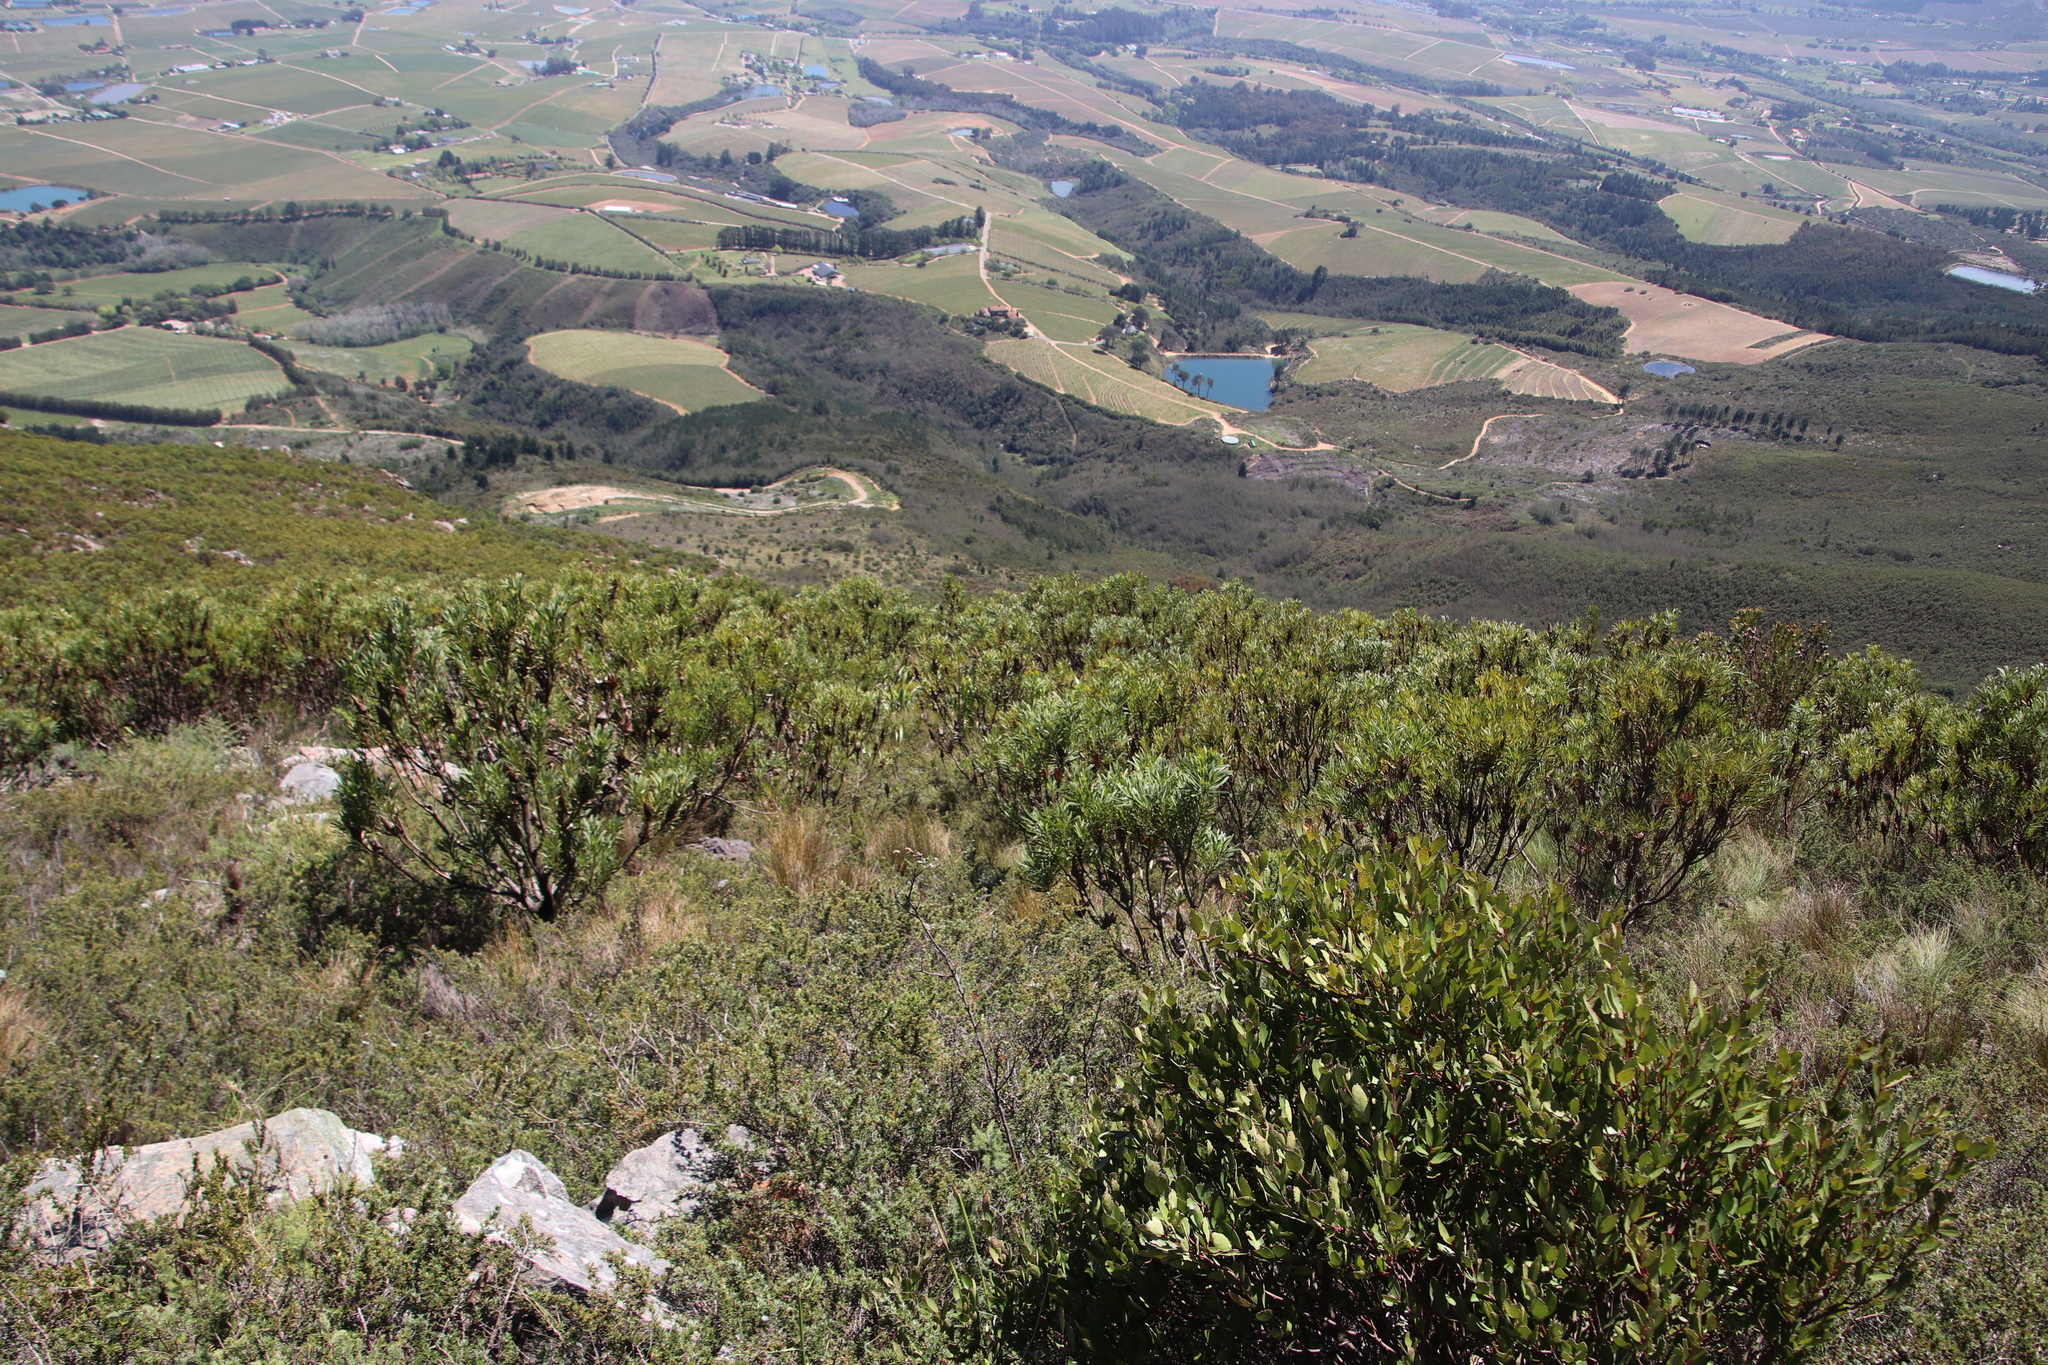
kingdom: Plantae
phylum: Tracheophyta
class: Magnoliopsida
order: Proteales
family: Proteaceae
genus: Protea
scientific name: Protea repens
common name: Sugarbush
